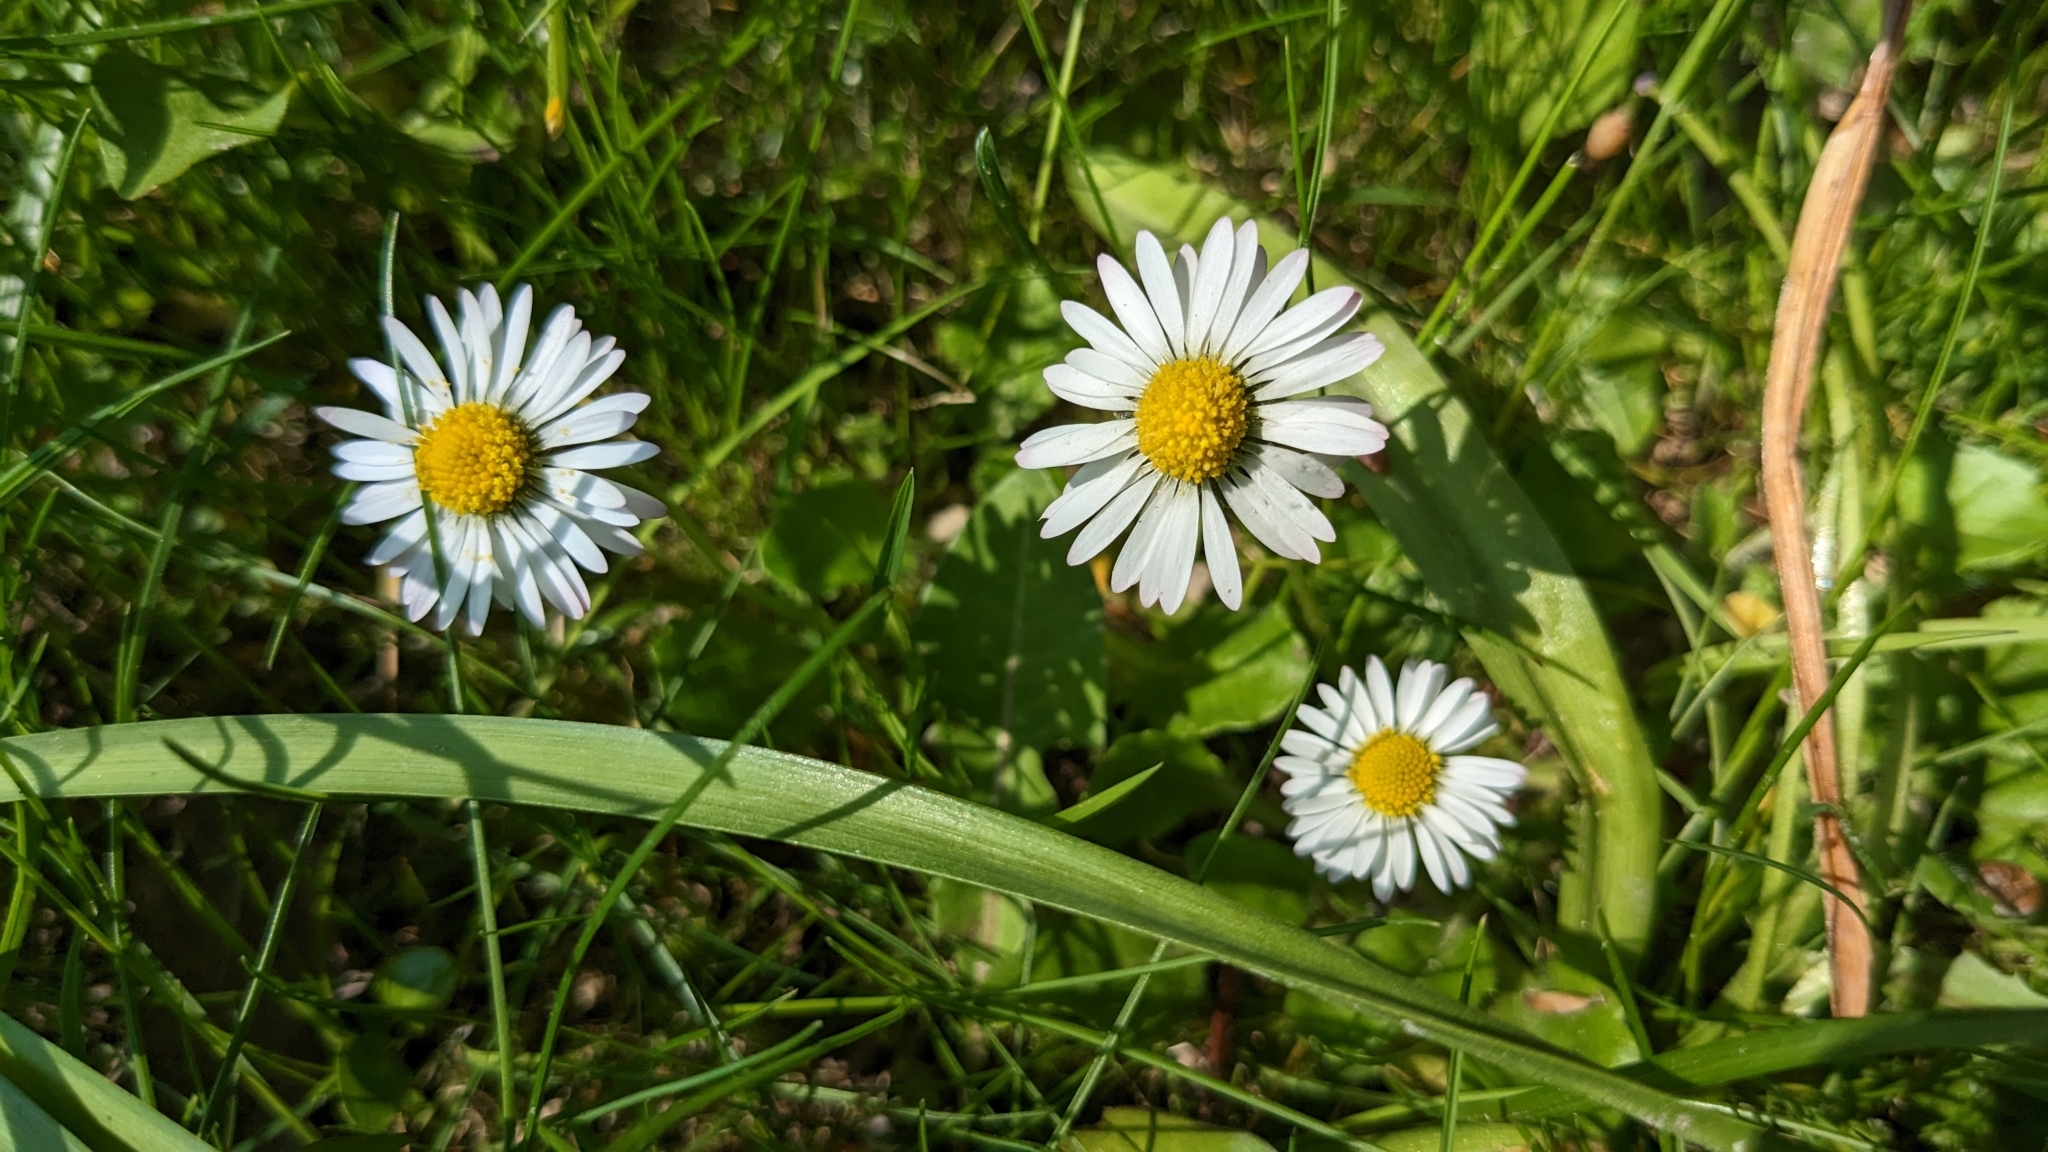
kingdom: Plantae
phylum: Tracheophyta
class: Magnoliopsida
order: Asterales
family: Asteraceae
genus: Bellis
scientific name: Bellis perennis
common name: Lawndaisy
